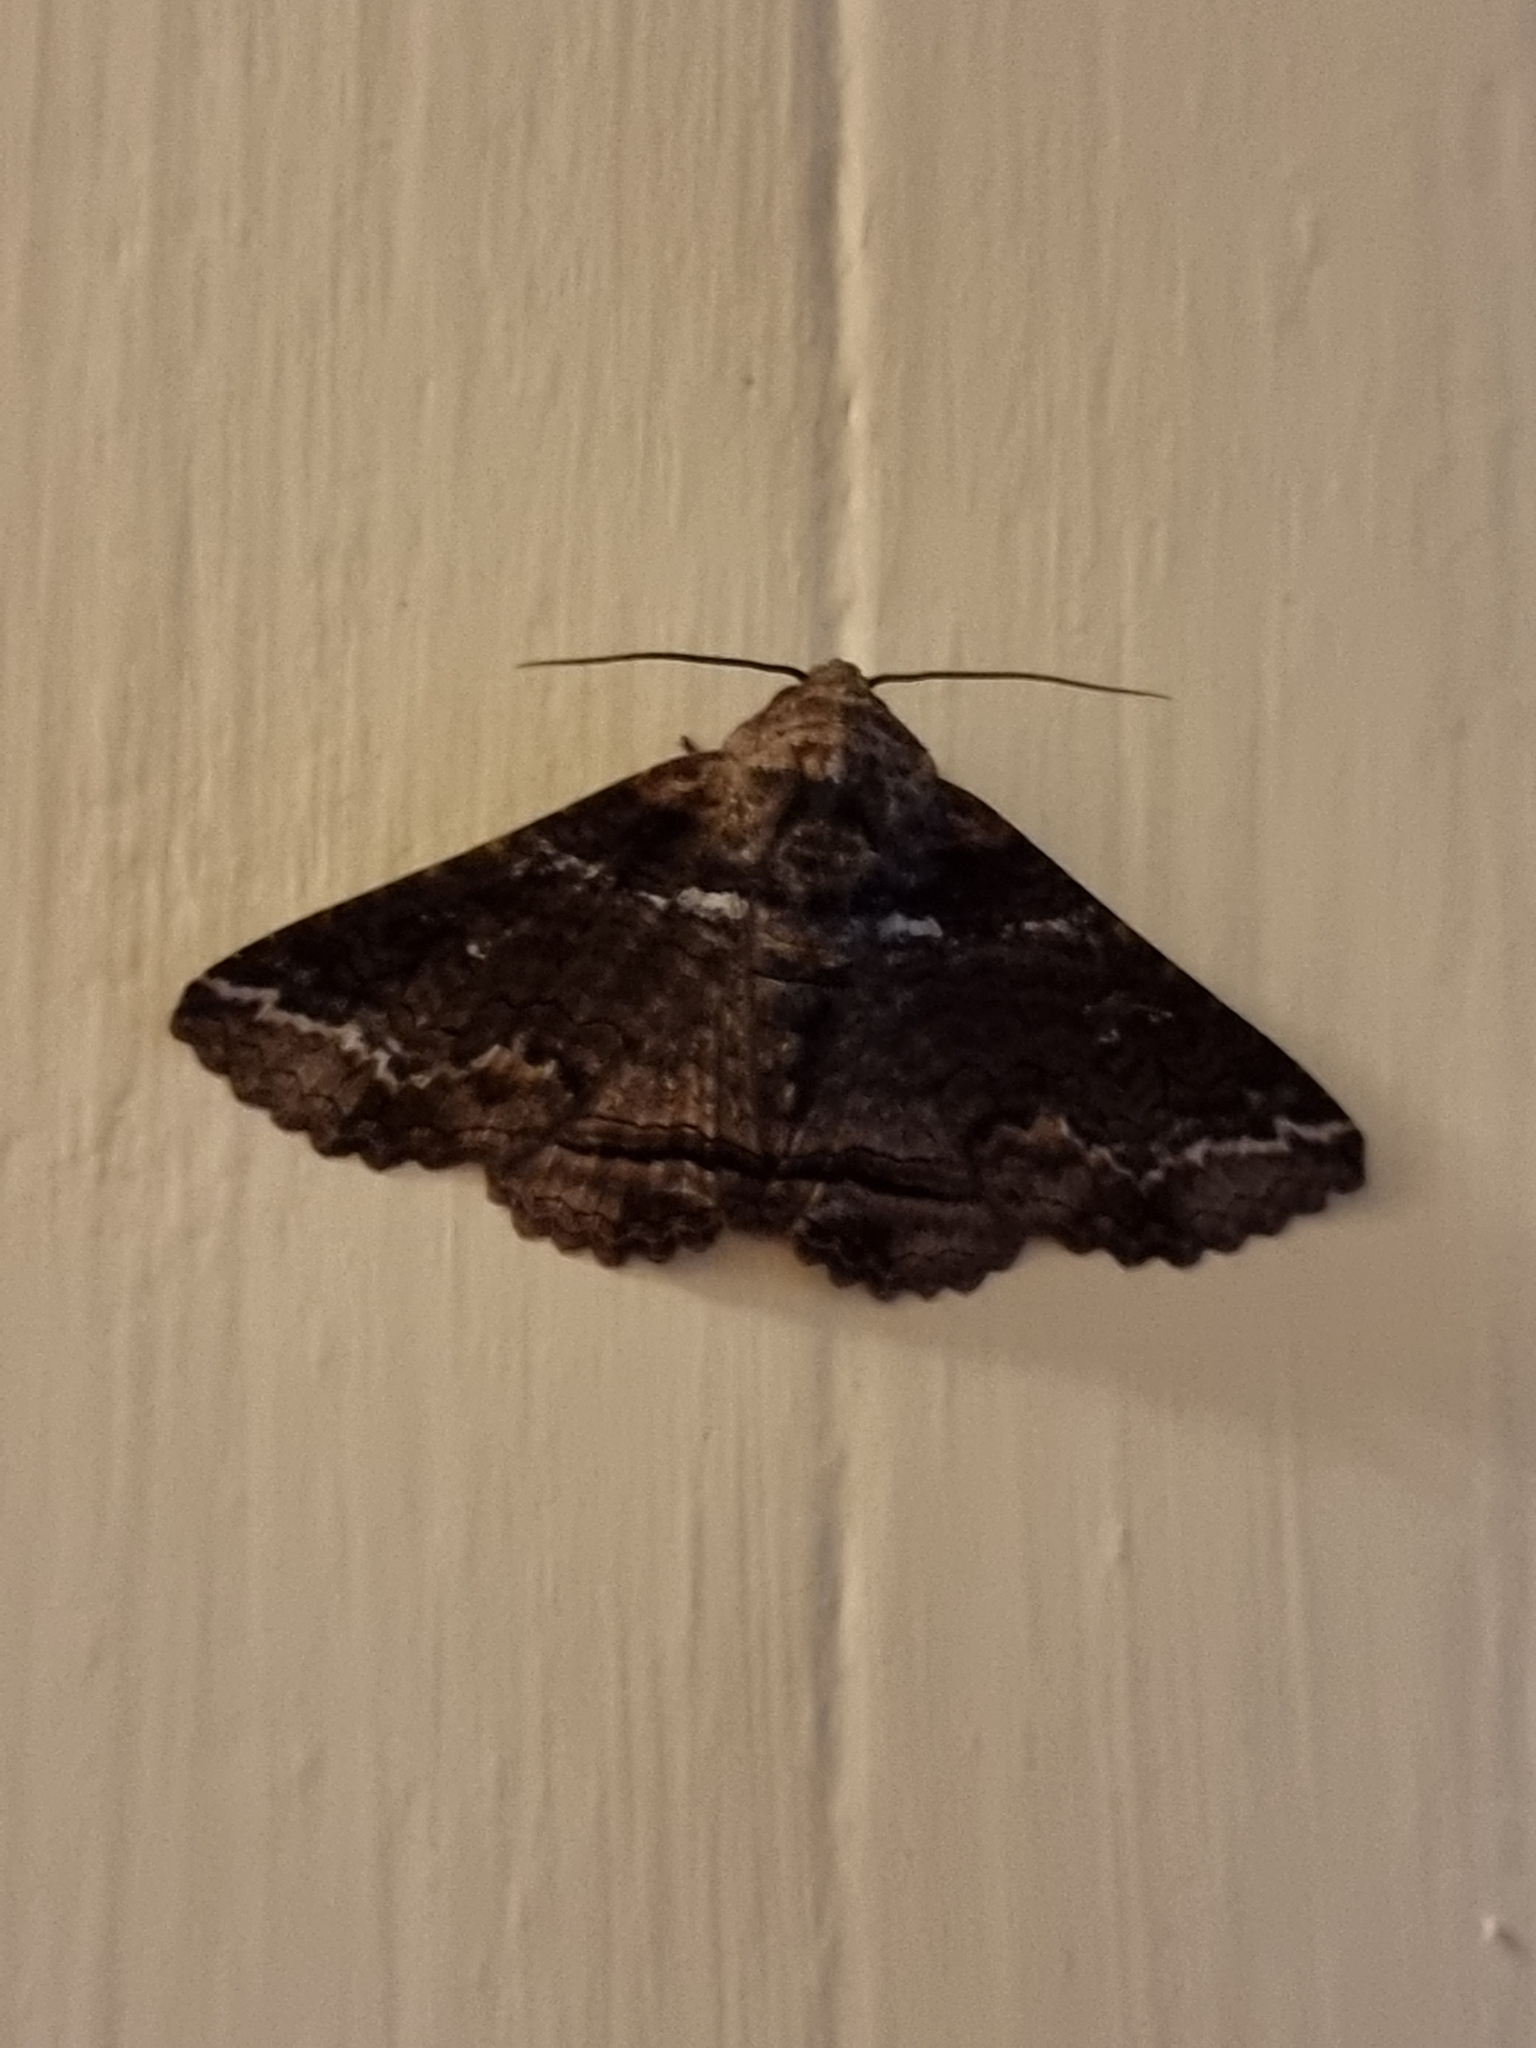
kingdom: Animalia
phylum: Arthropoda
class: Insecta
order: Lepidoptera
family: Erebidae
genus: Pericyma
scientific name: Pericyma cruegeri
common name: Poinciana looper
